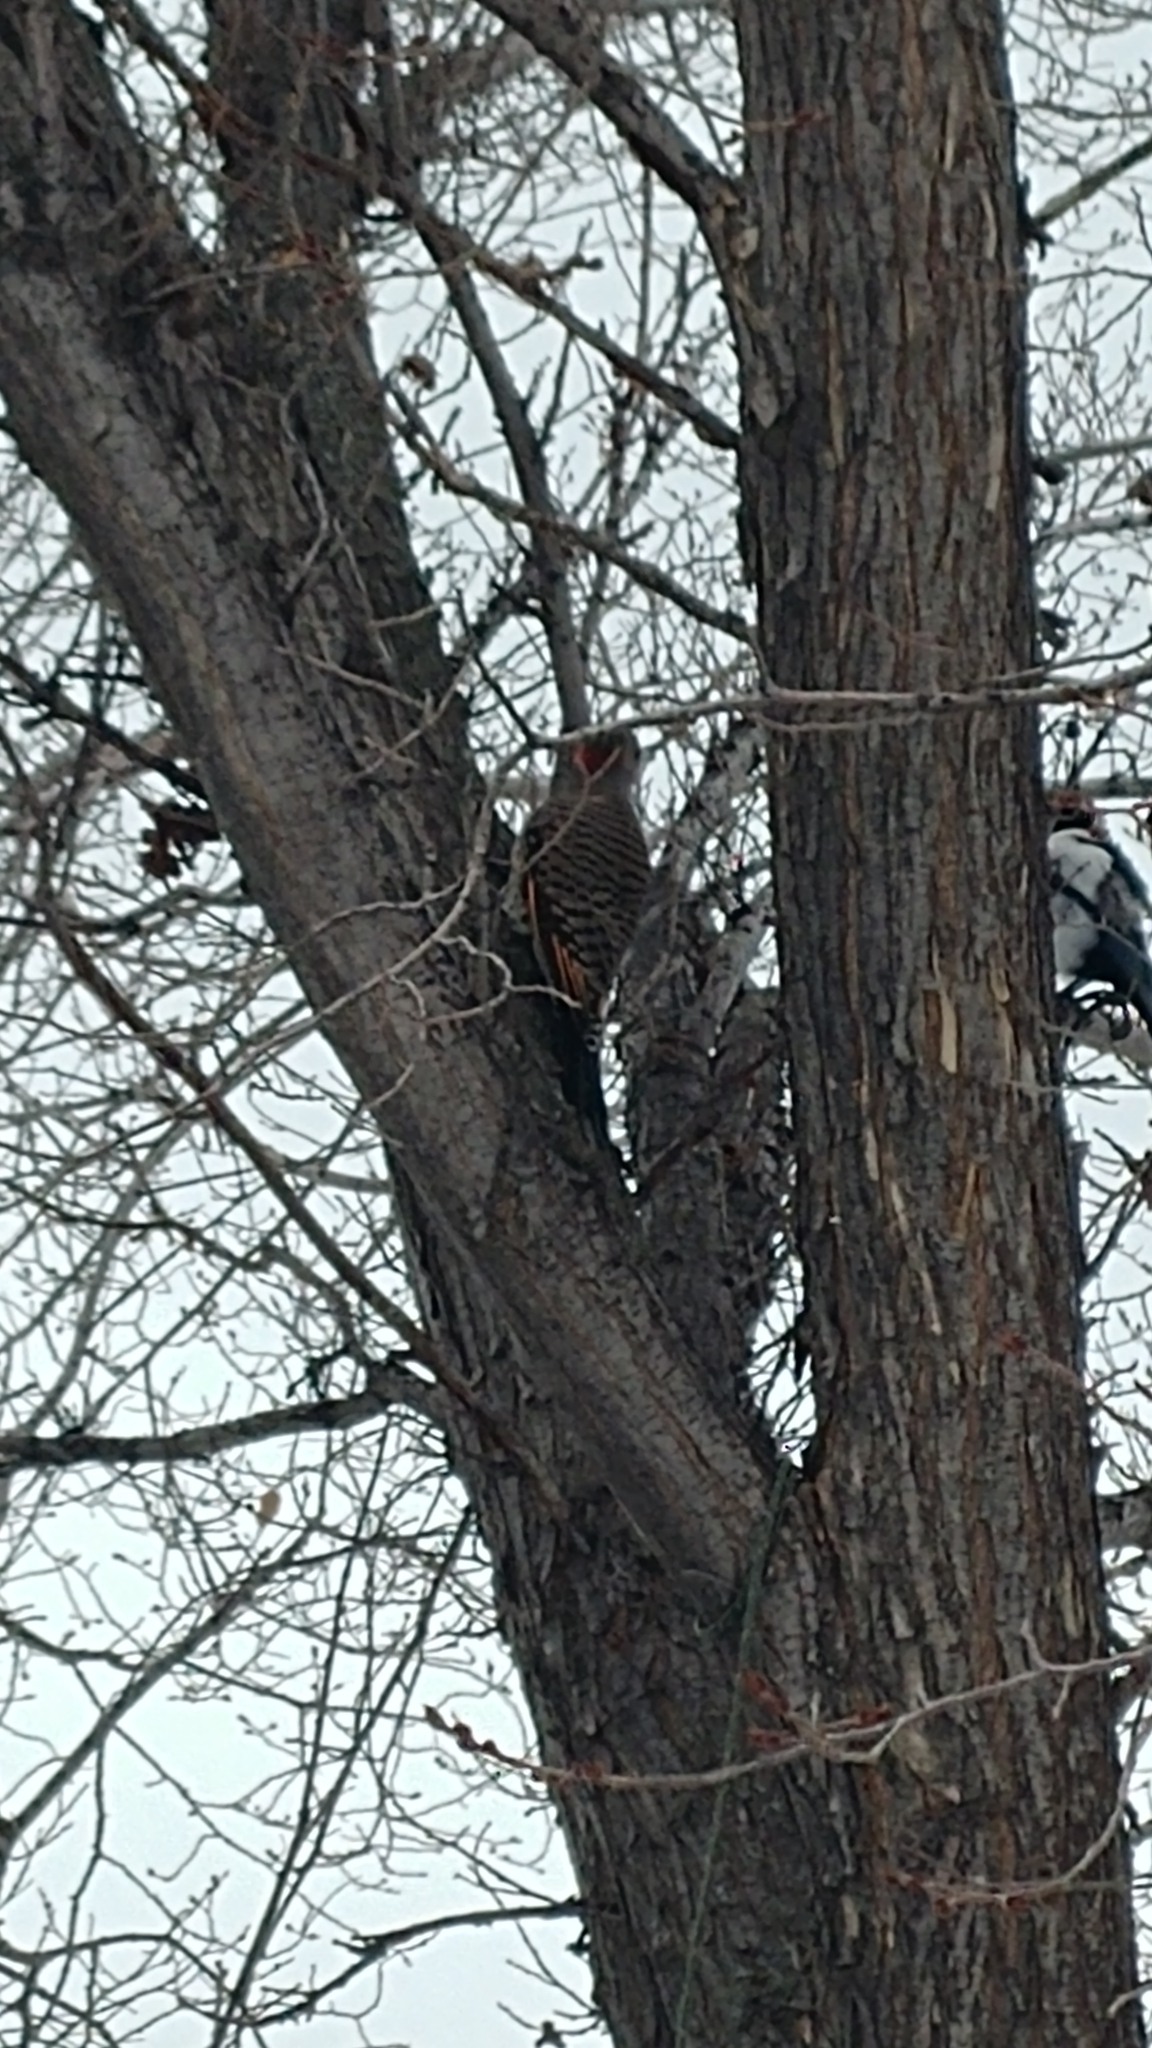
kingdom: Animalia
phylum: Chordata
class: Aves
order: Piciformes
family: Picidae
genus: Colaptes
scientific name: Colaptes auratus
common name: Northern flicker
